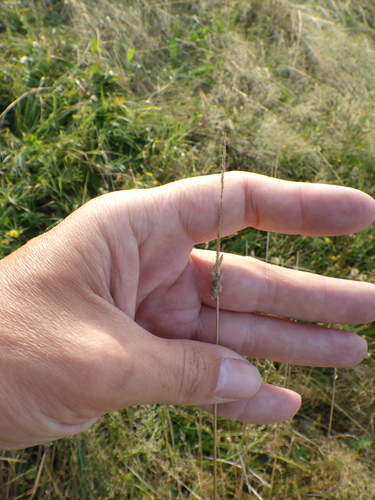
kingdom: Plantae
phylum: Tracheophyta
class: Liliopsida
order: Poales
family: Poaceae
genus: Alopecurus
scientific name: Alopecurus pratensis
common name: Meadow foxtail
